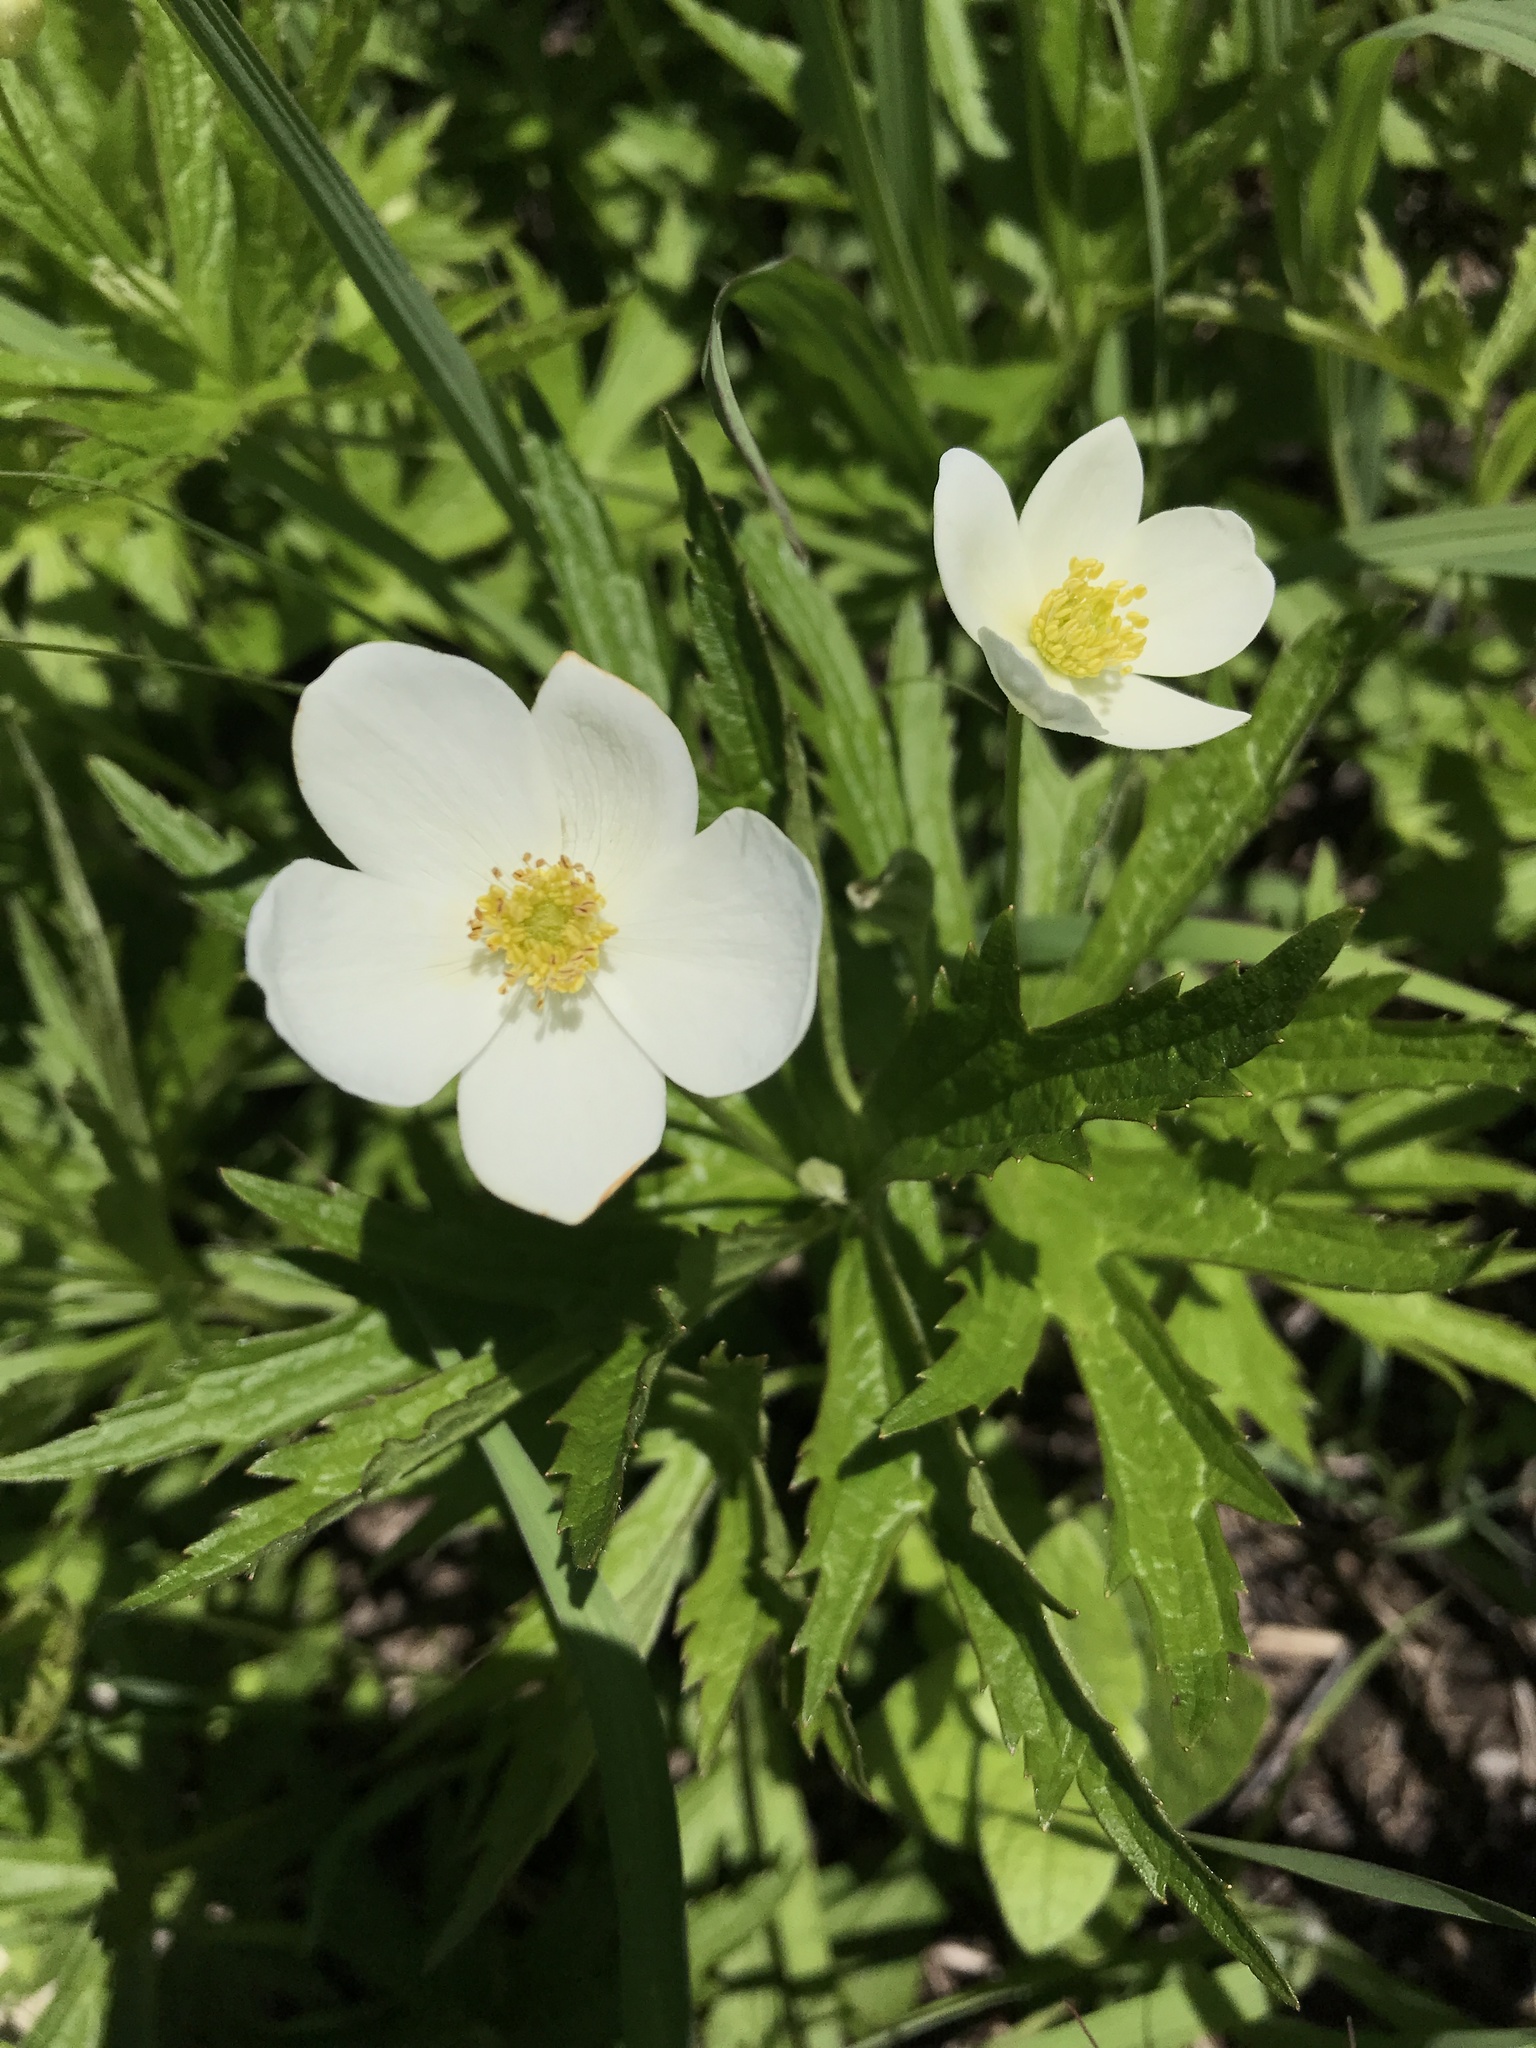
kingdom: Plantae
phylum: Tracheophyta
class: Magnoliopsida
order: Ranunculales
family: Ranunculaceae
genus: Anemonastrum
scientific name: Anemonastrum canadense
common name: Canada anemone
